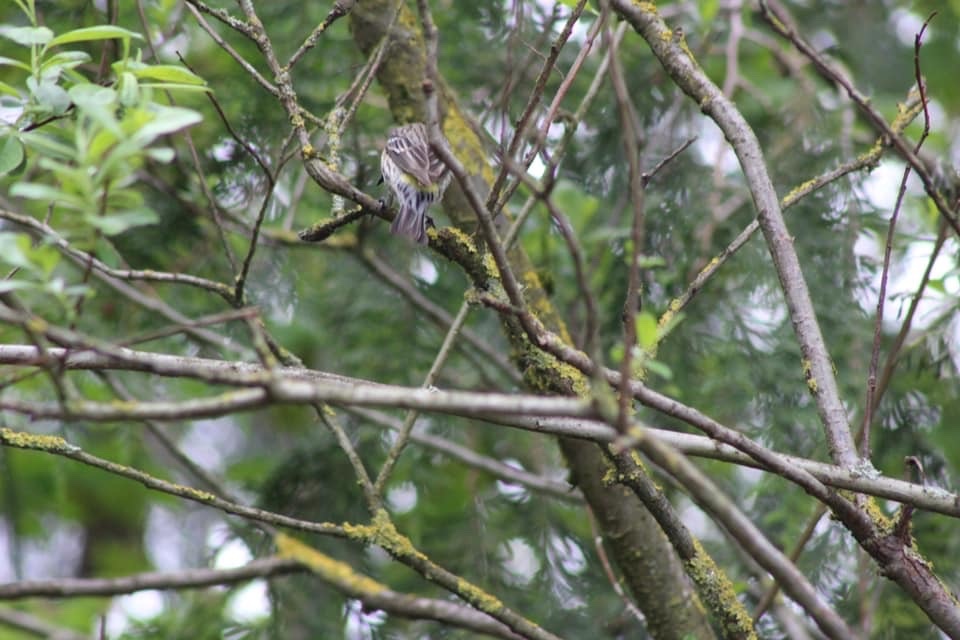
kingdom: Animalia
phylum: Chordata
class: Aves
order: Passeriformes
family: Parulidae
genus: Setophaga
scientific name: Setophaga coronata
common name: Myrtle warbler
